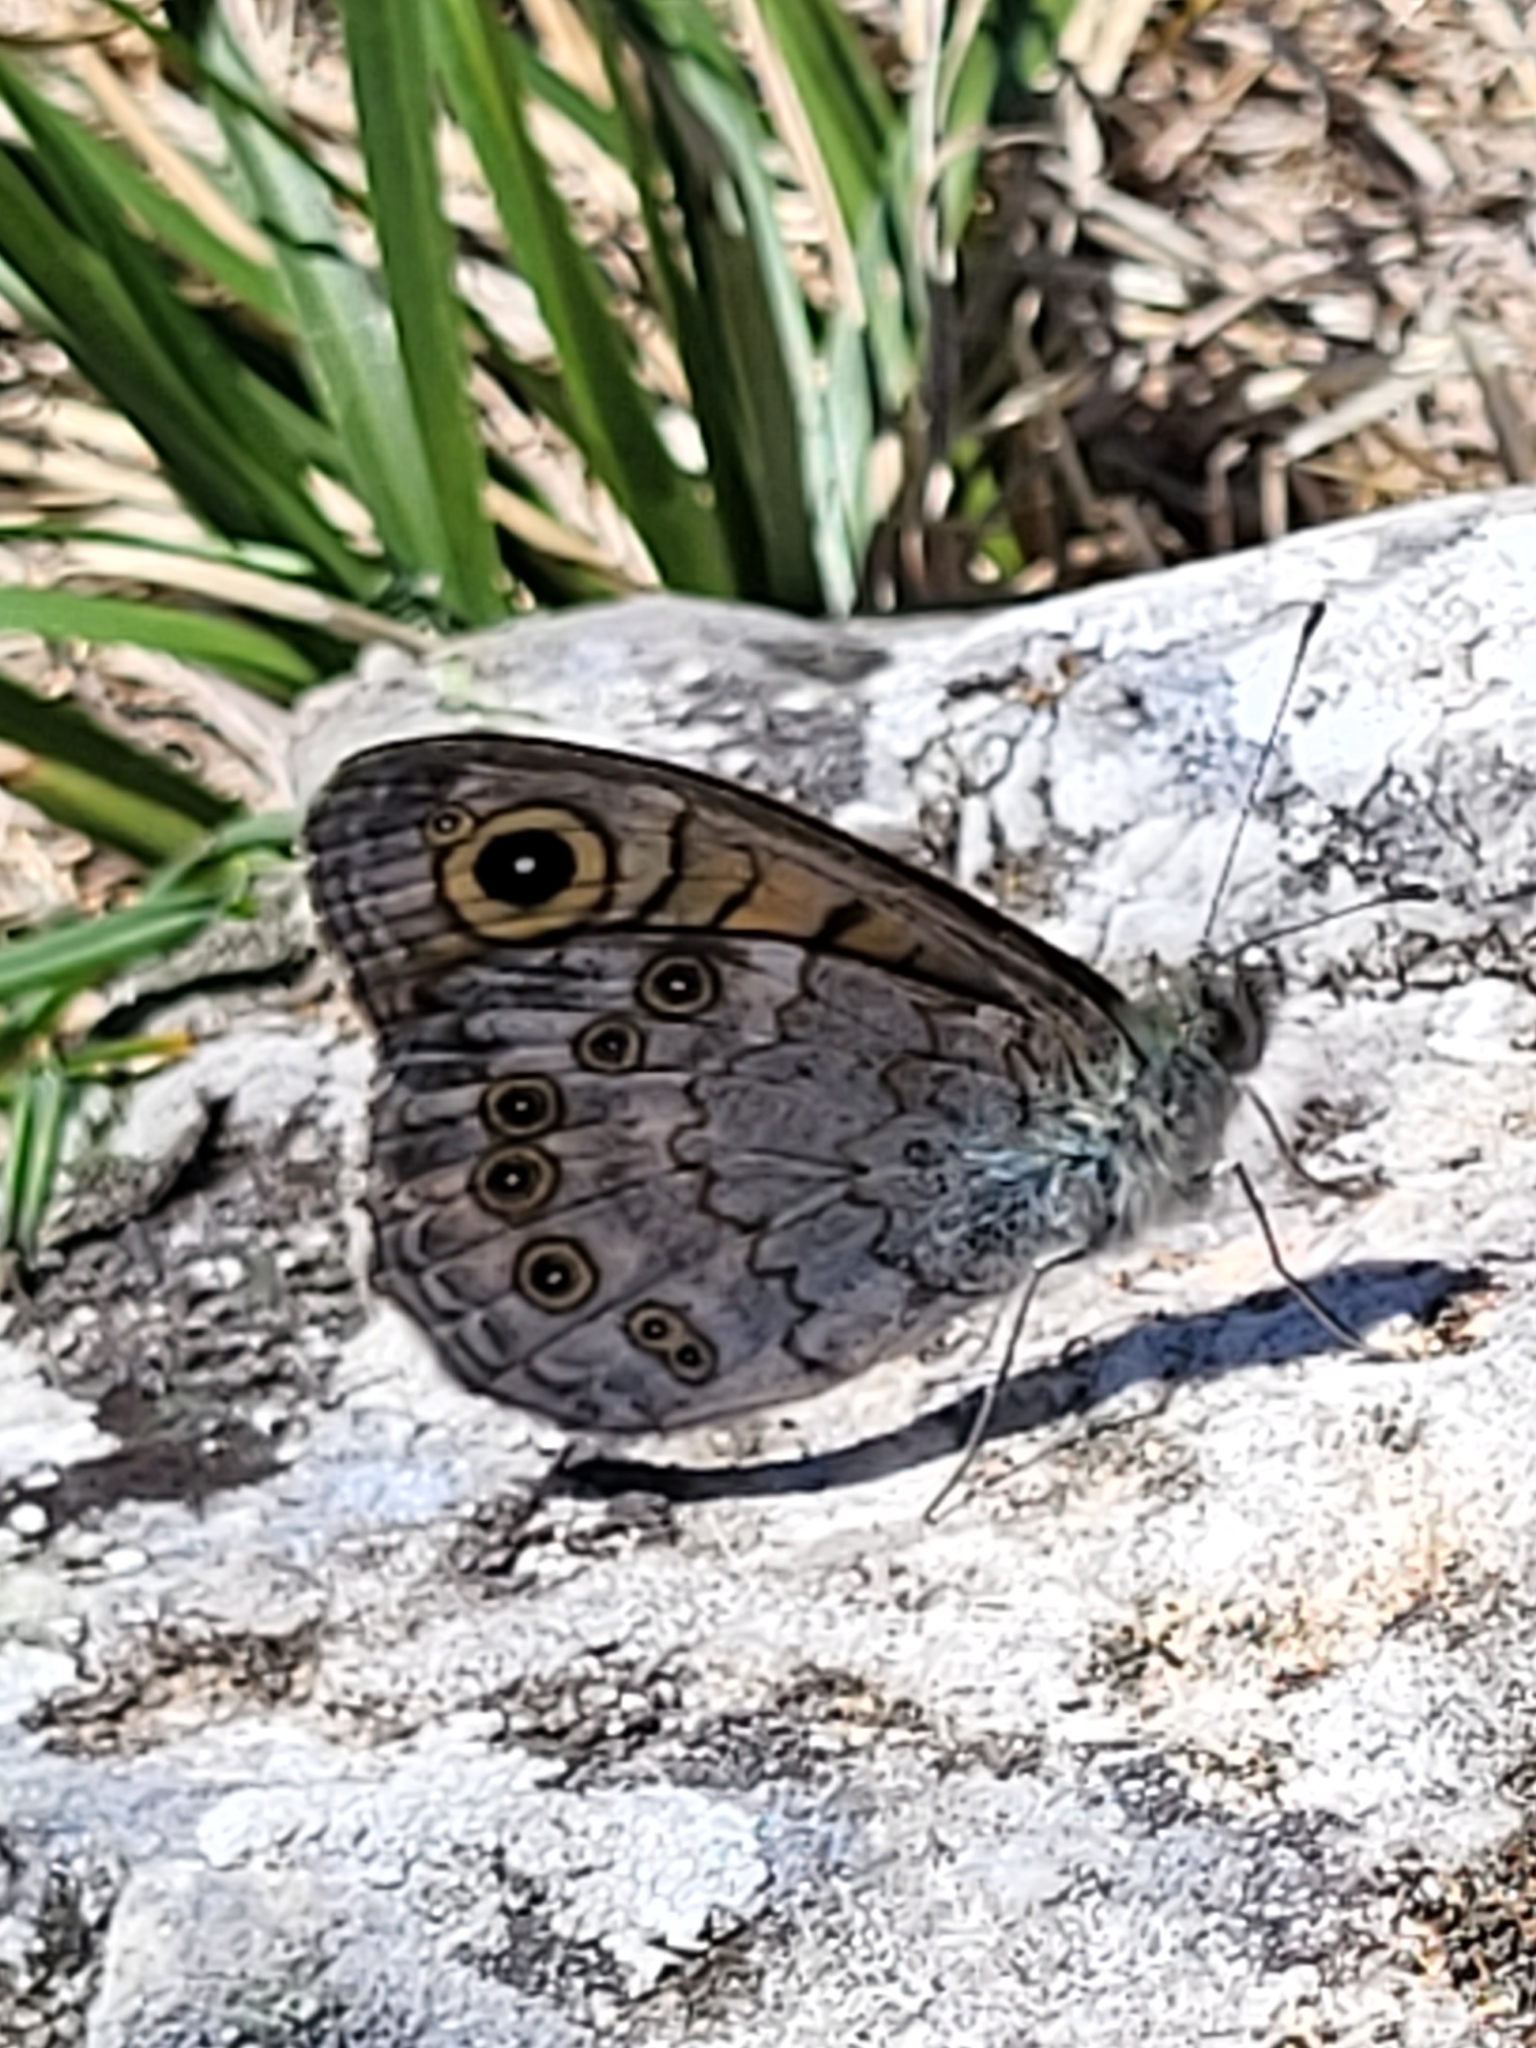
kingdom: Animalia
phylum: Arthropoda
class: Insecta
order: Lepidoptera
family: Nymphalidae
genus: Pararge
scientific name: Pararge Lasiommata megera
